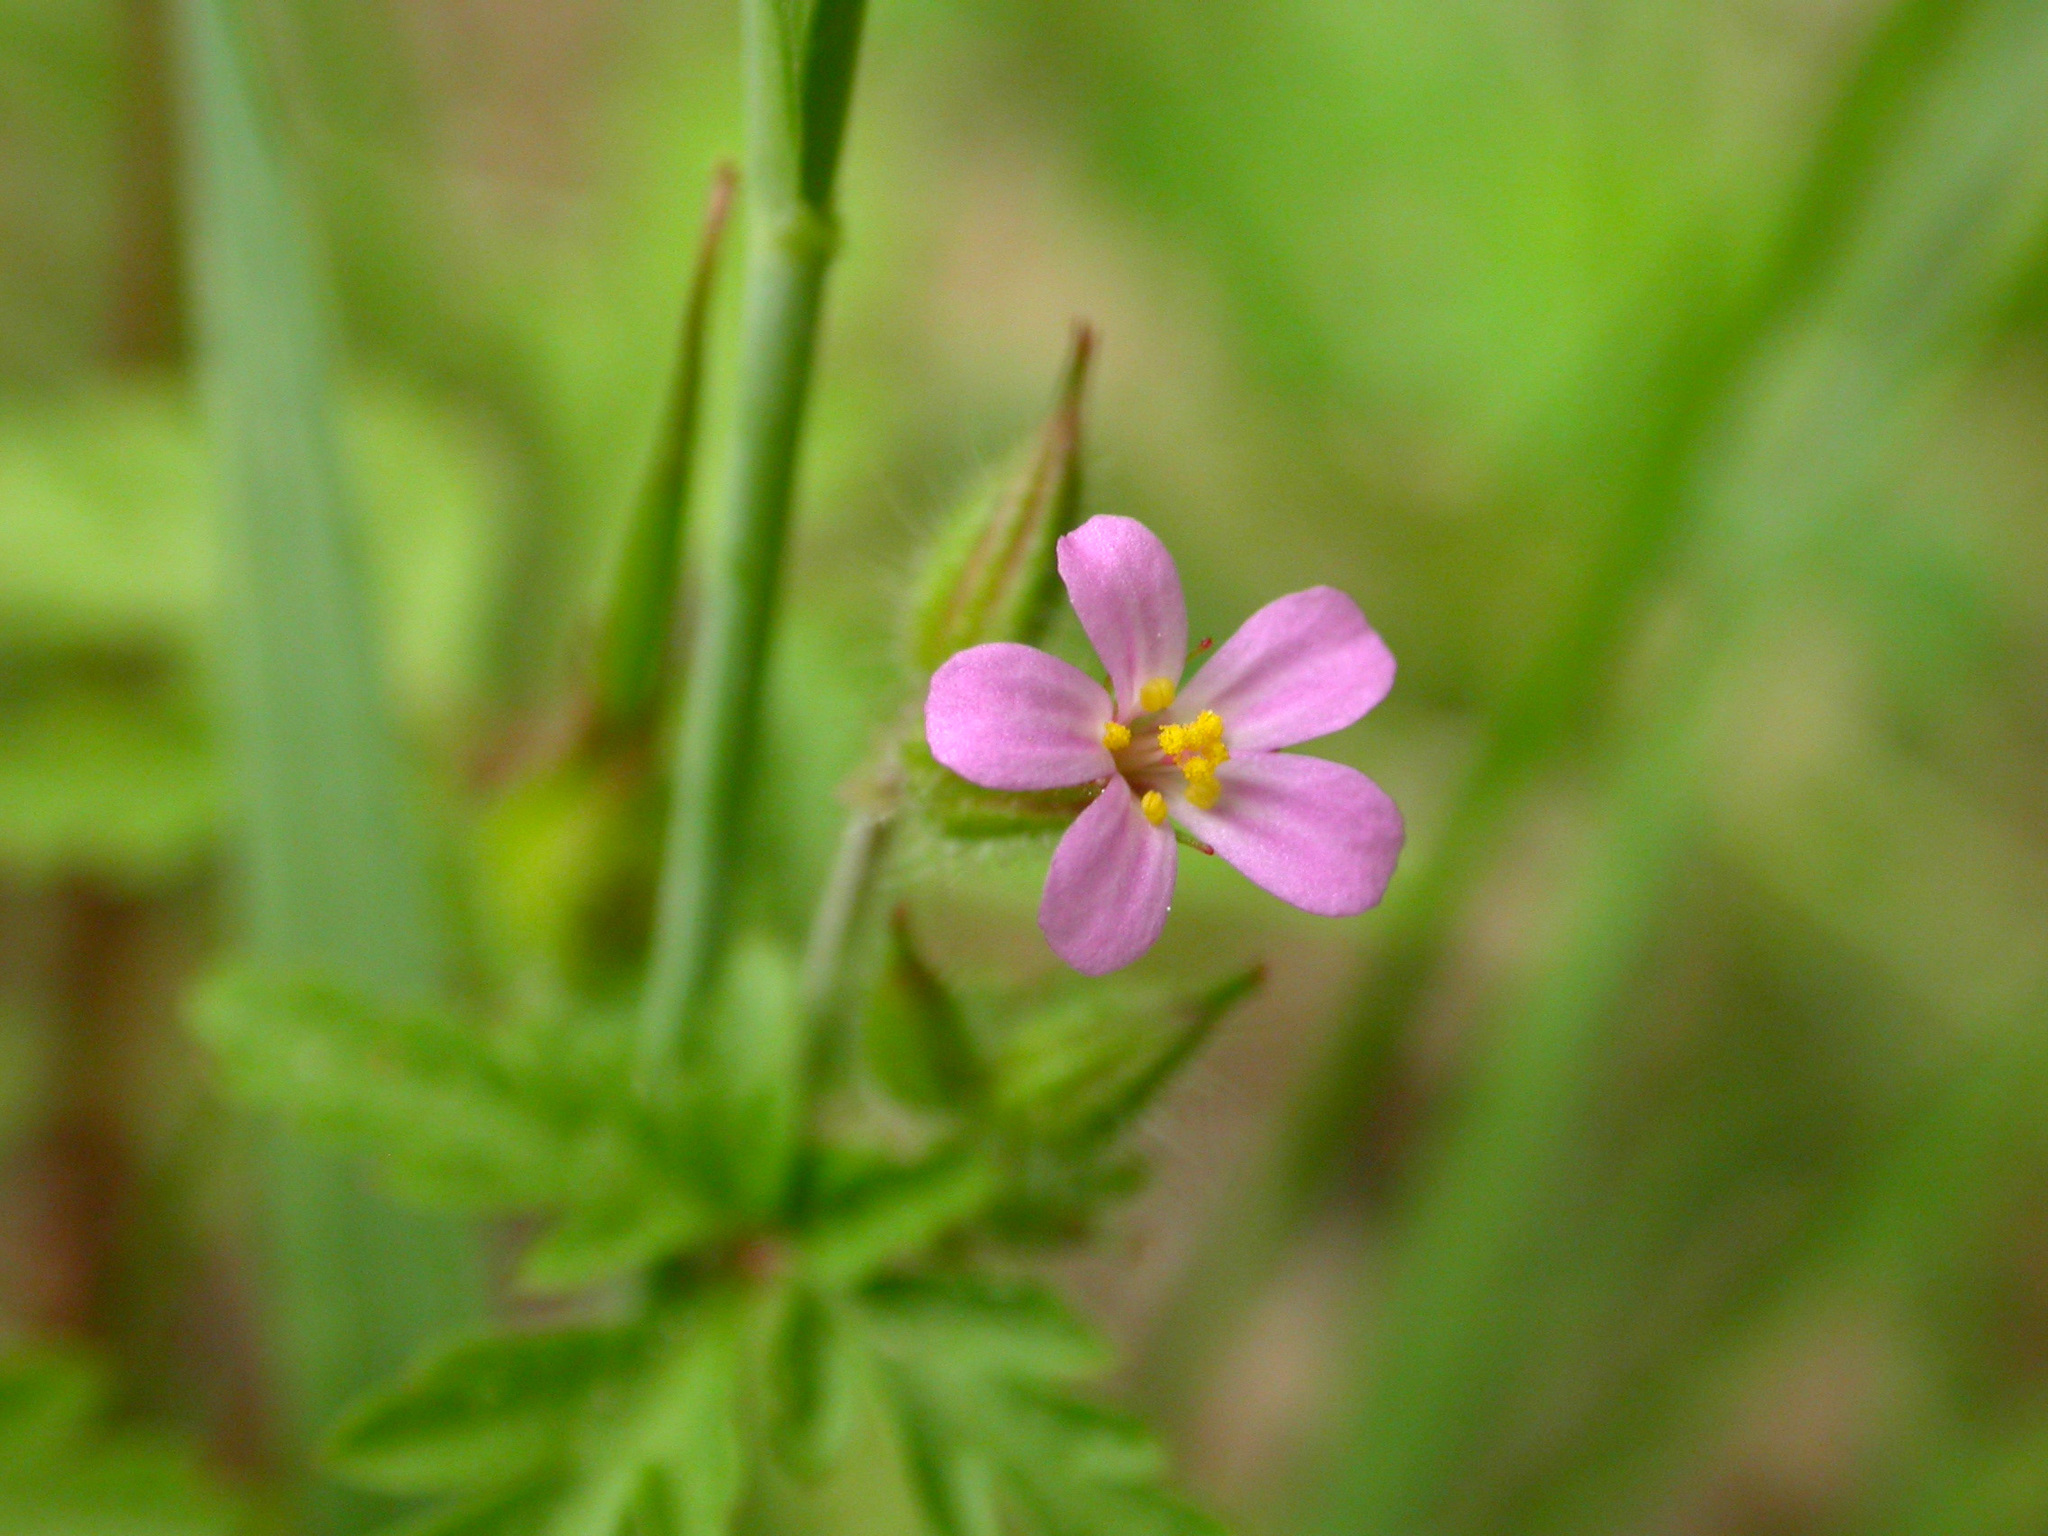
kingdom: Plantae
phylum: Tracheophyta
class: Magnoliopsida
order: Geraniales
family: Geraniaceae
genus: Geranium
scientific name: Geranium purpureum
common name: Little-robin
